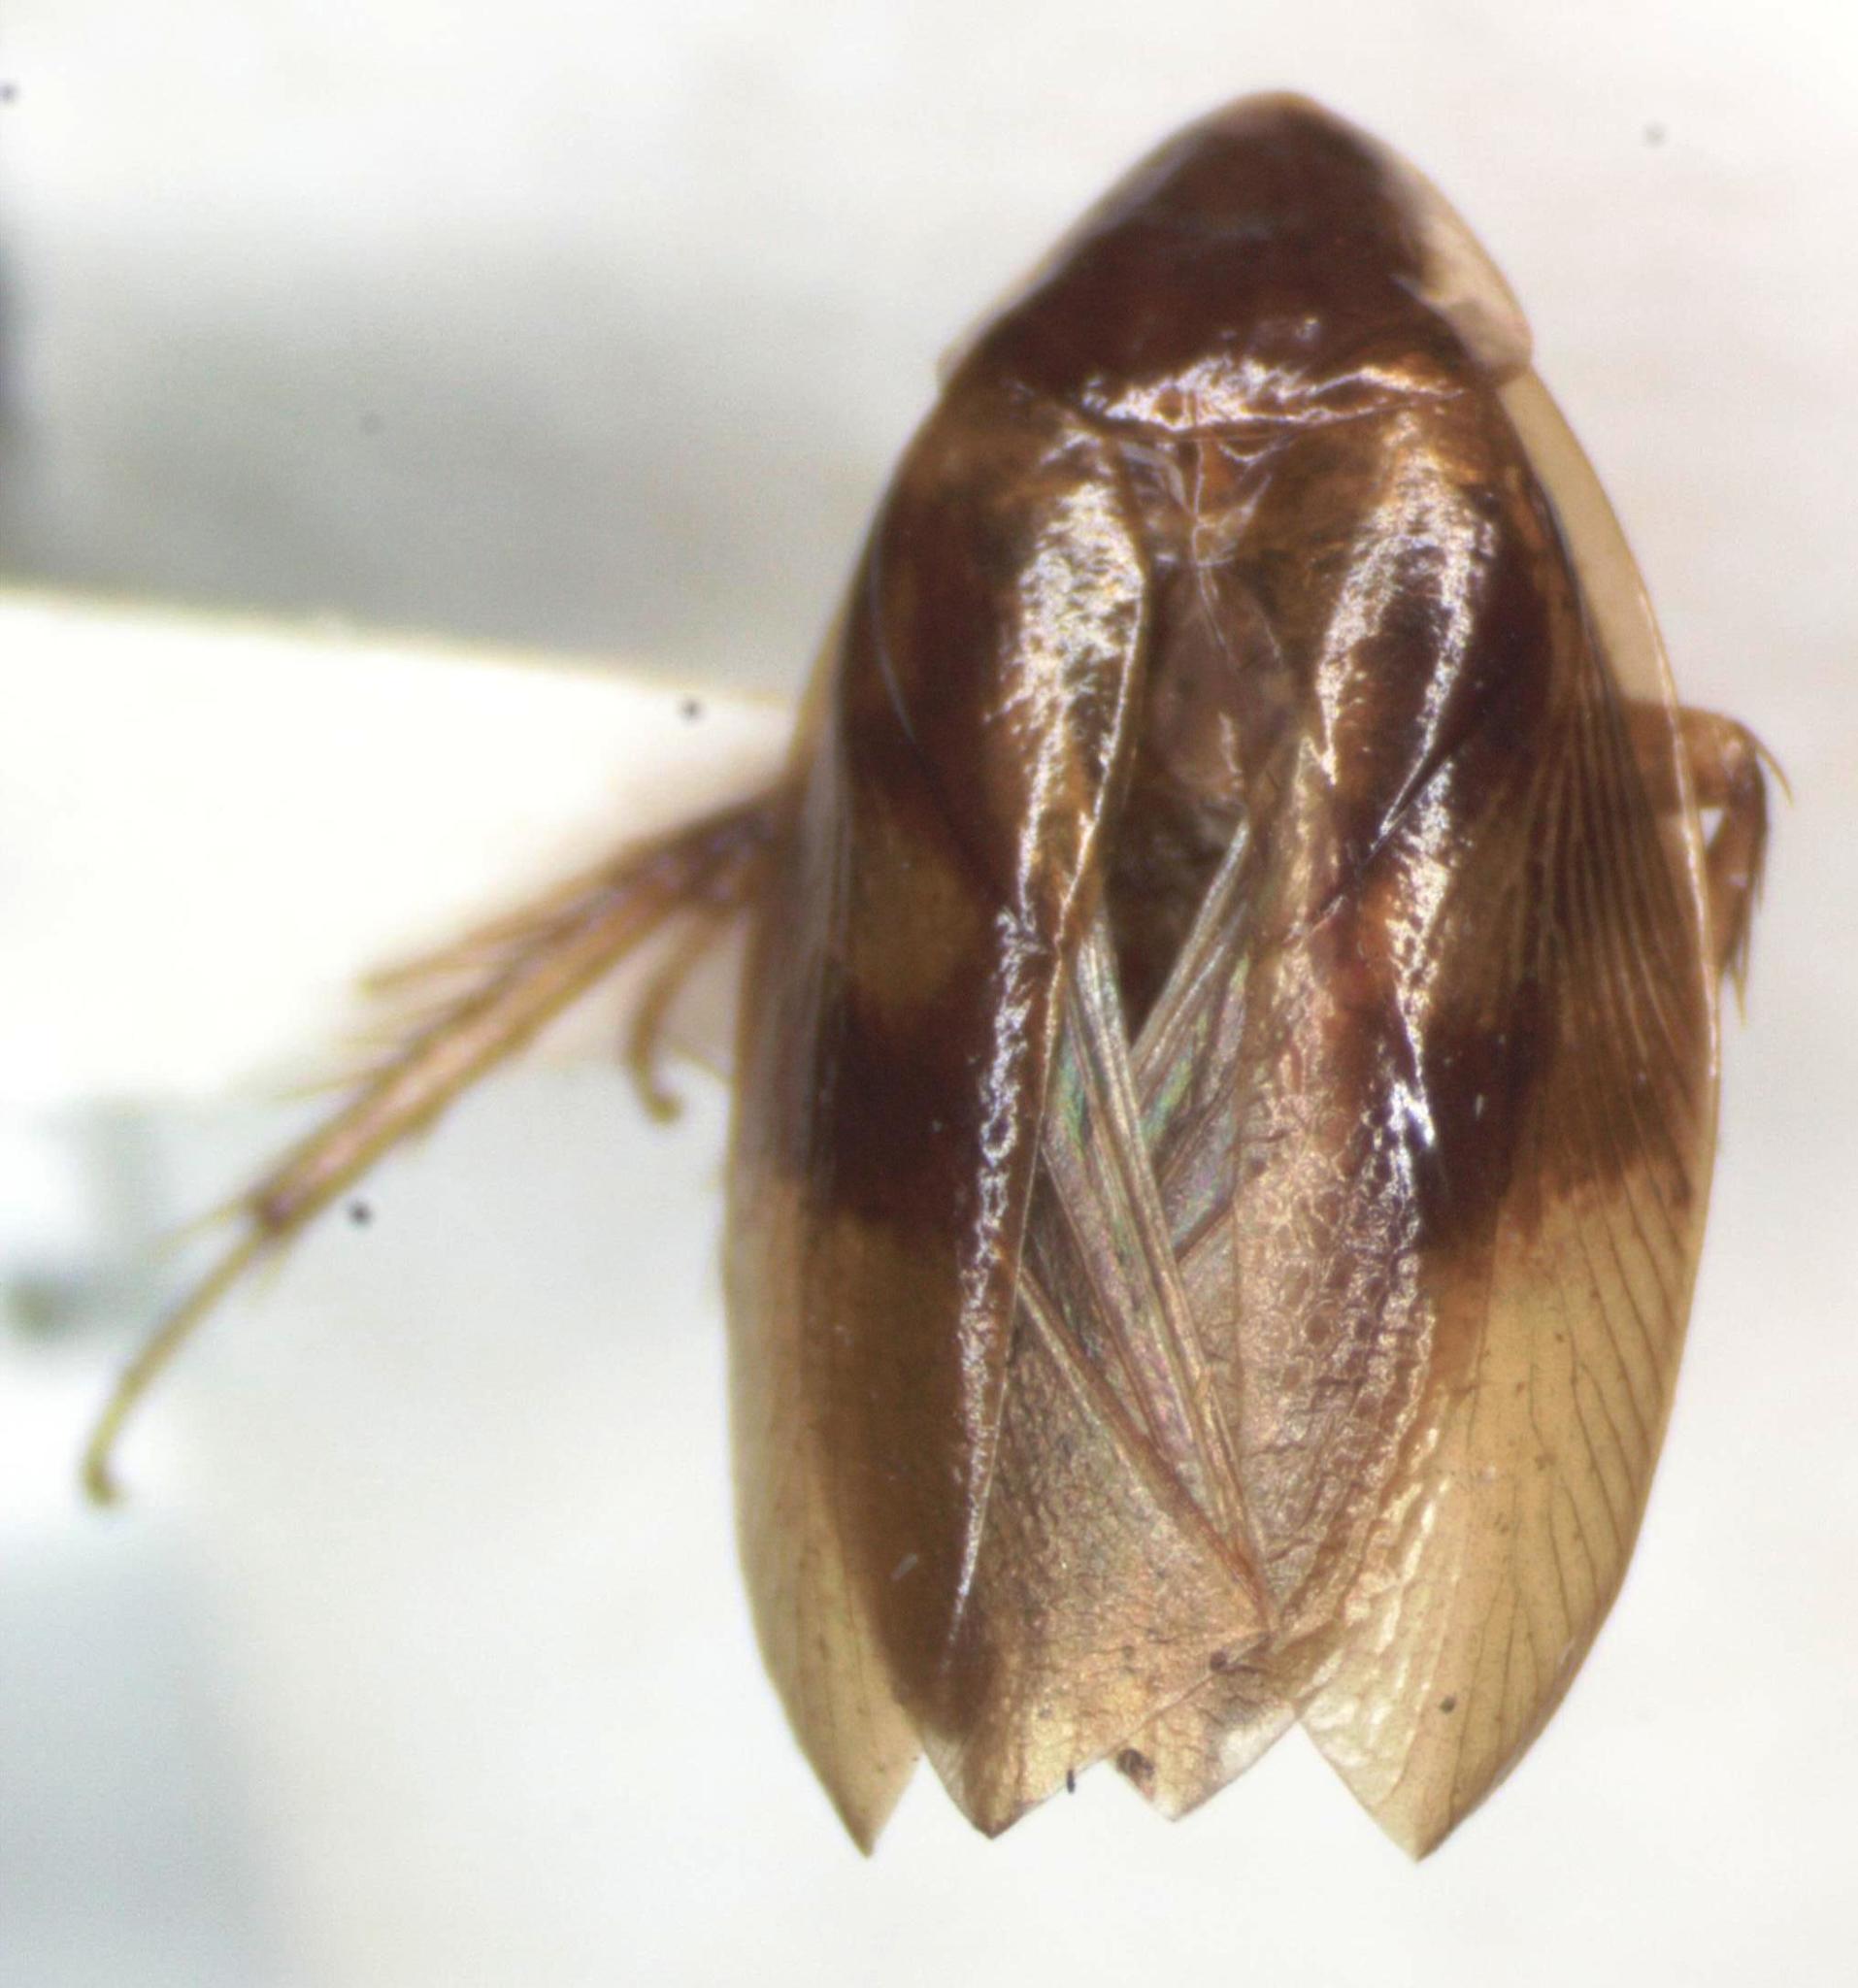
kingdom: Animalia
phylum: Arthropoda
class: Insecta
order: Blattodea
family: Ectobiidae
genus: Riatia
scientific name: Riatia flabellata
